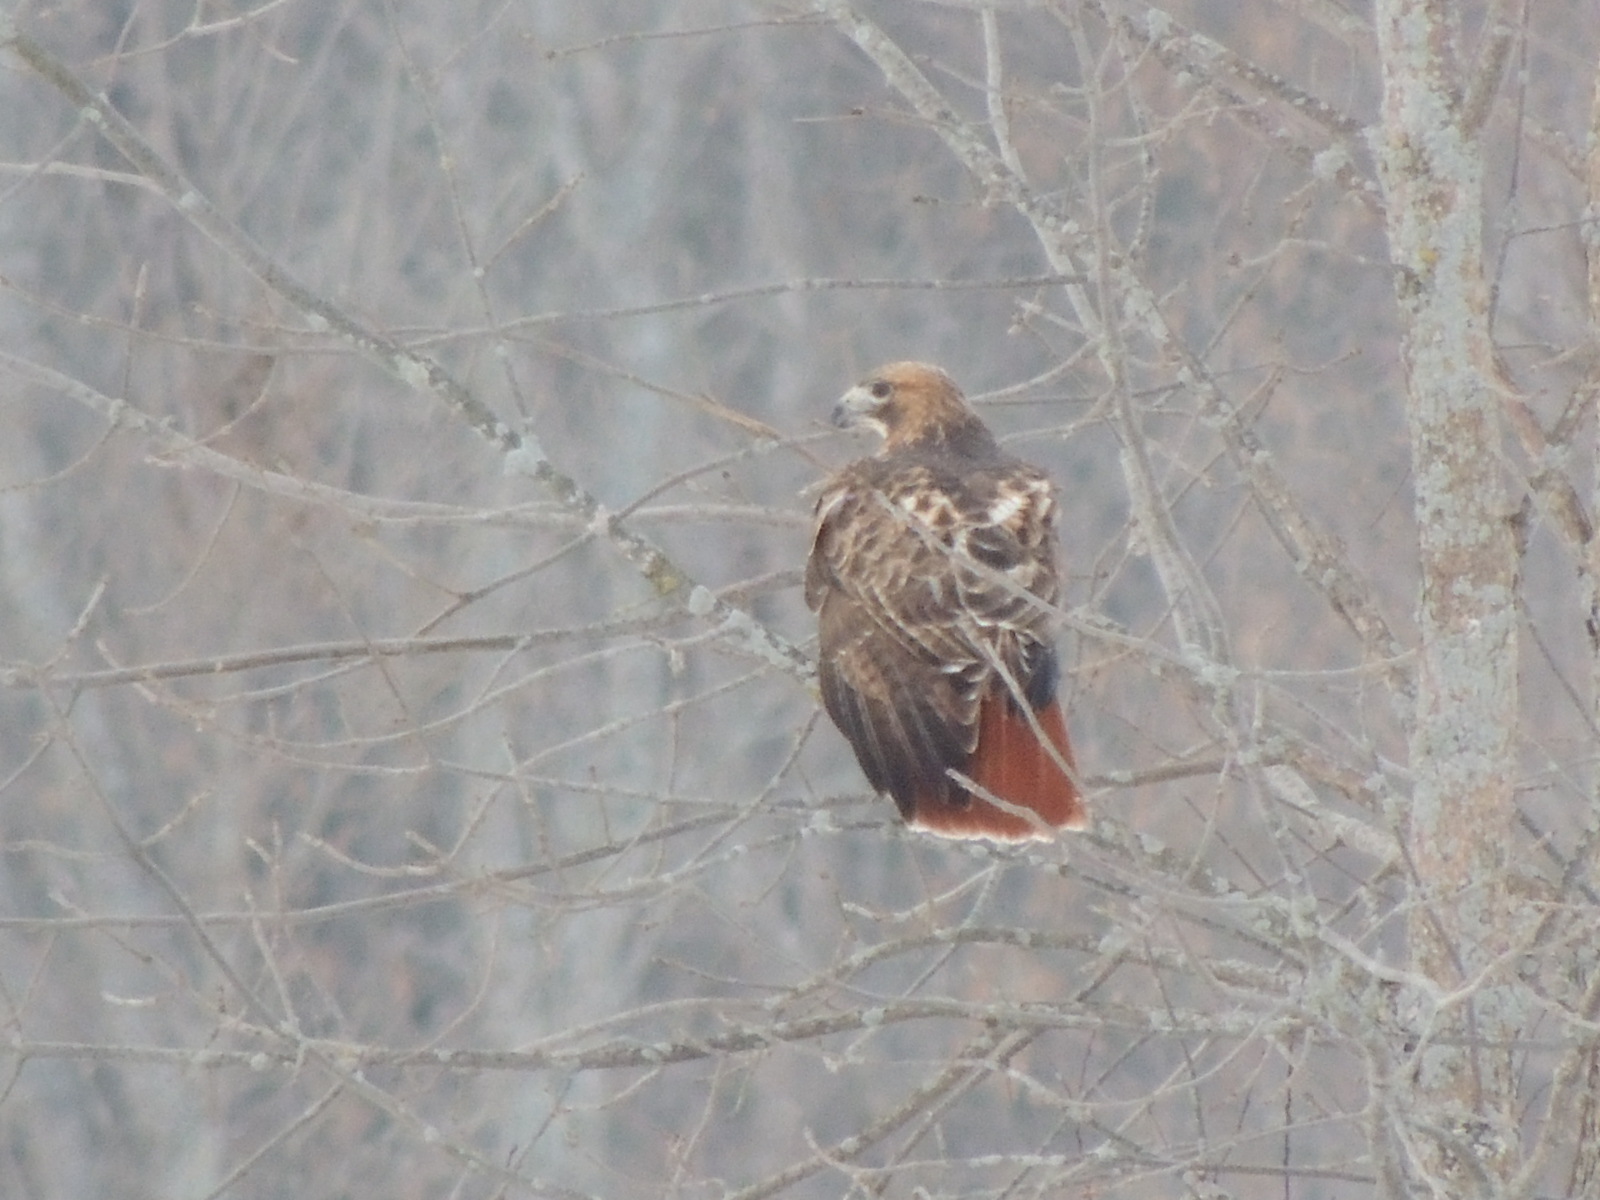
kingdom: Animalia
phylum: Chordata
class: Aves
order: Accipitriformes
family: Accipitridae
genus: Buteo
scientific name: Buteo jamaicensis
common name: Red-tailed hawk
